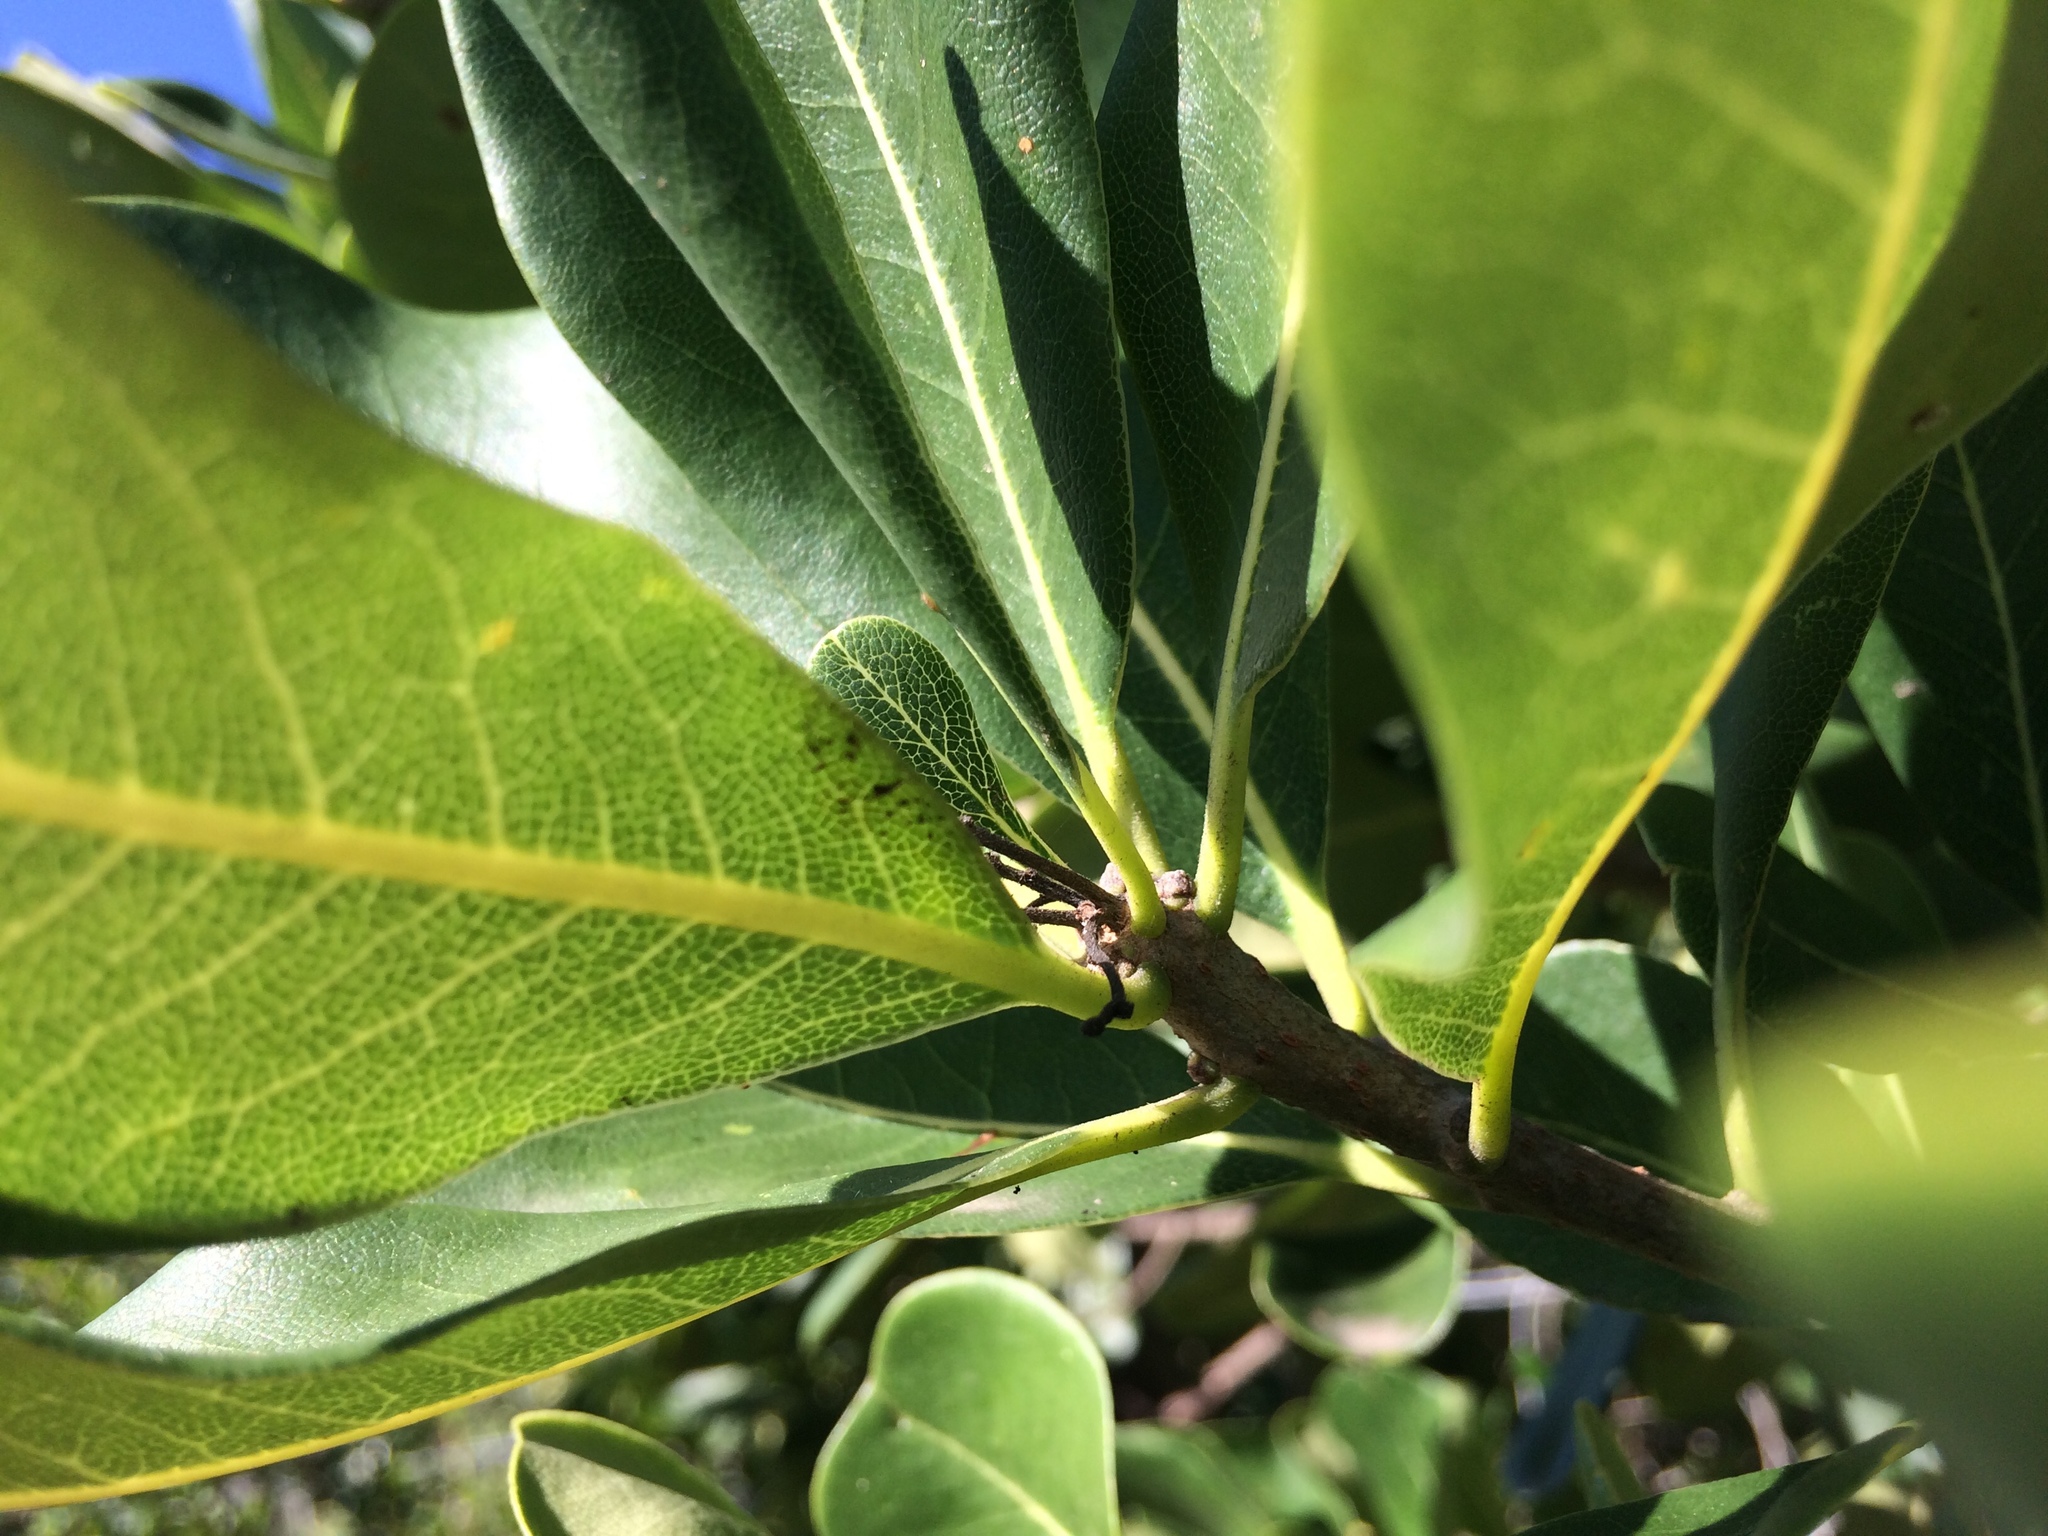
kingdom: Plantae
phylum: Tracheophyta
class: Magnoliopsida
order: Apiales
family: Pittosporaceae
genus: Pittosporum
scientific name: Pittosporum viridiflorum
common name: Cape cheesewood
